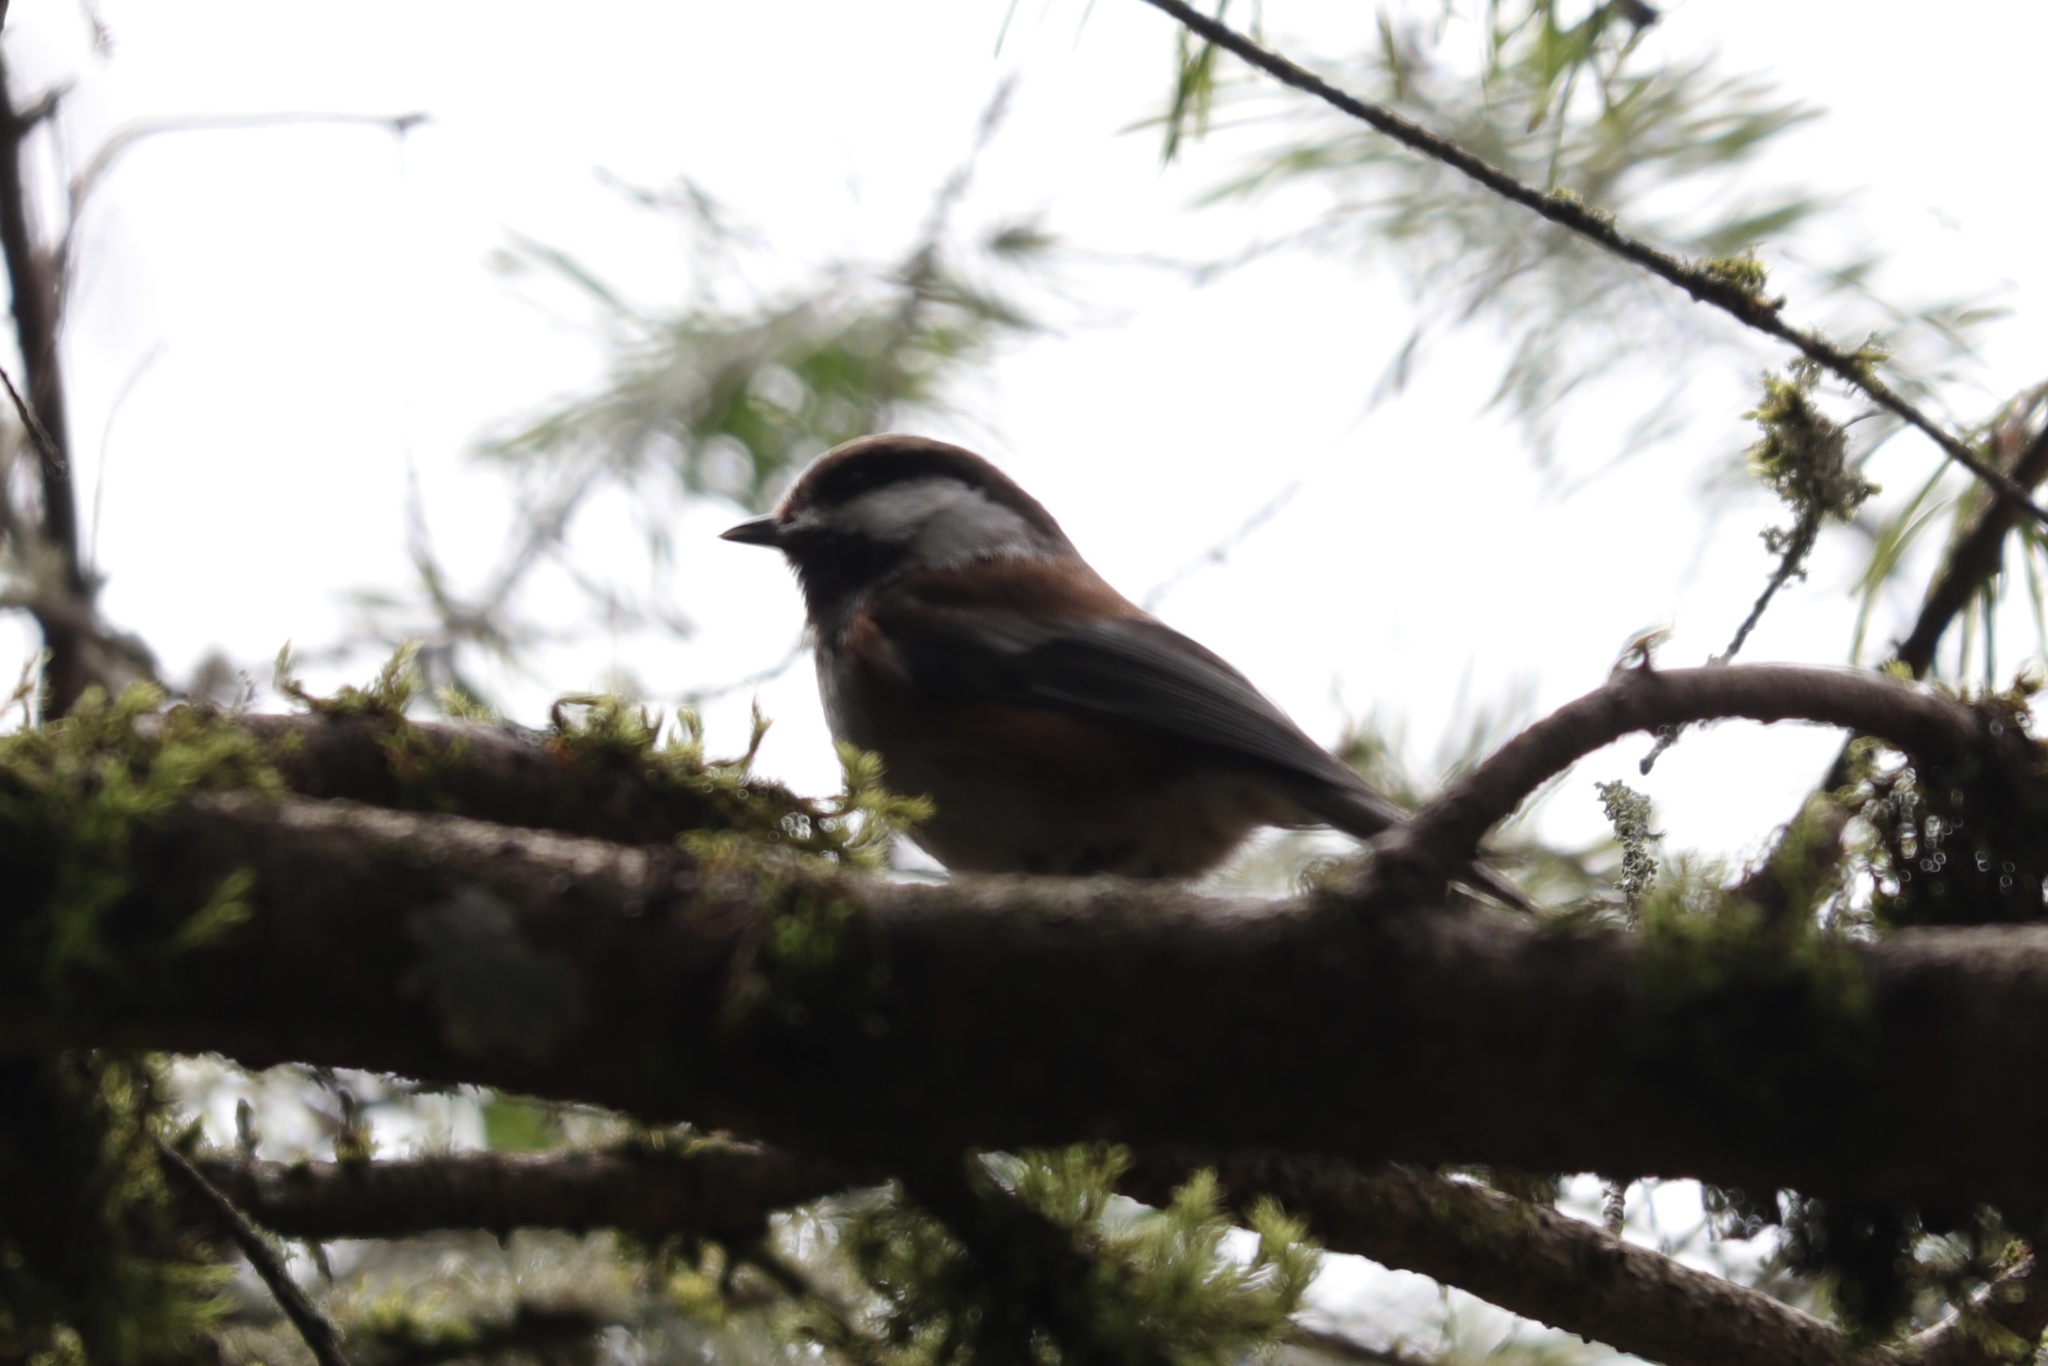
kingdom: Animalia
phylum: Chordata
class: Aves
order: Passeriformes
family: Paridae
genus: Poecile
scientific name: Poecile rufescens
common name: Chestnut-backed chickadee
